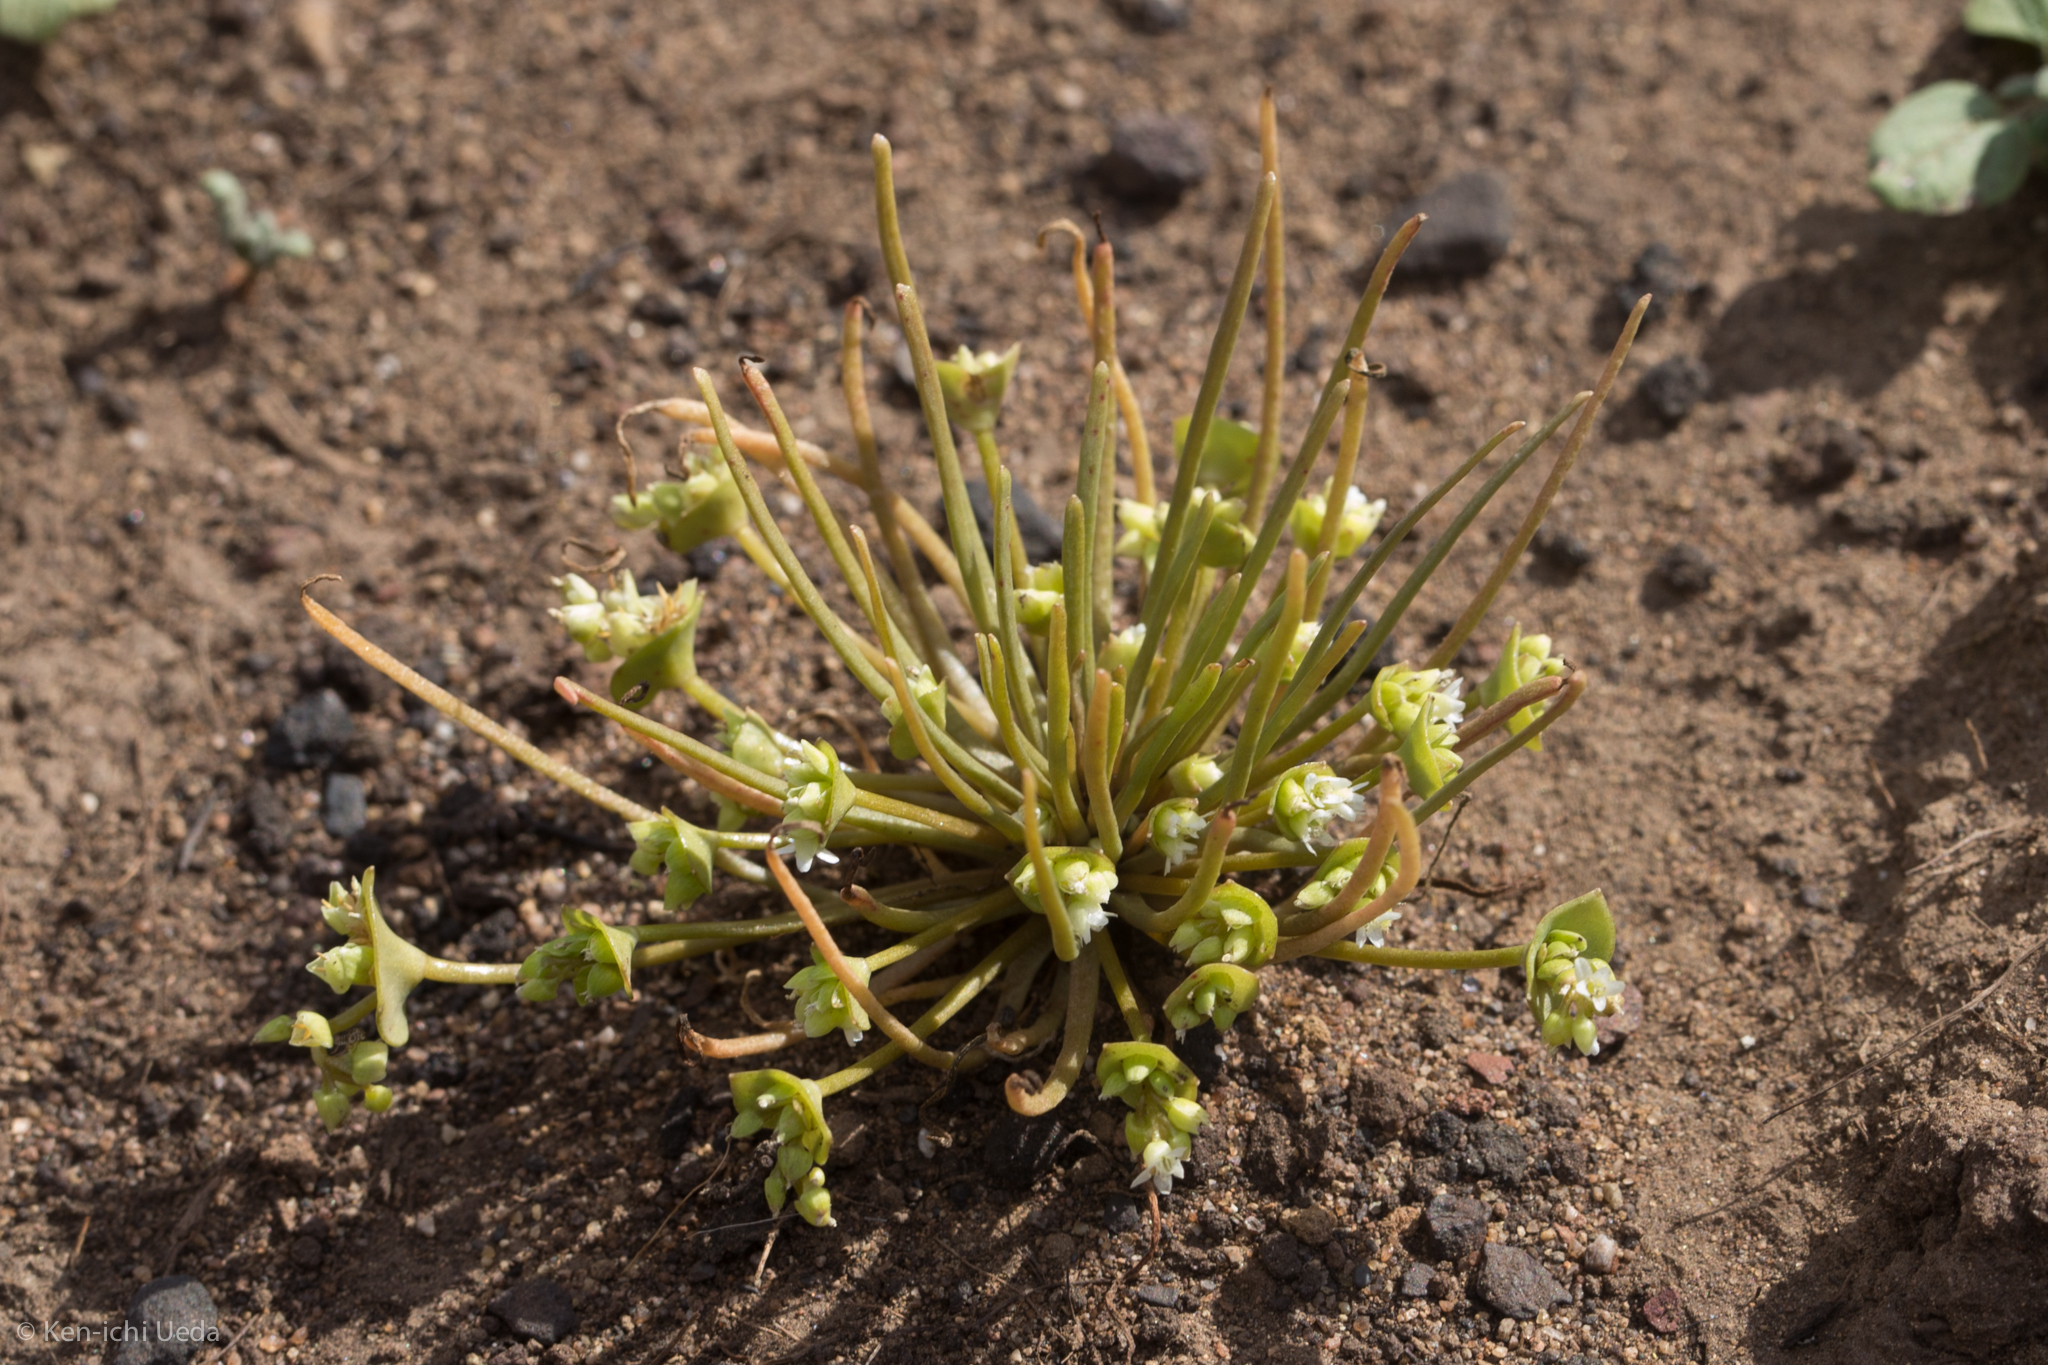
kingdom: Plantae
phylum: Tracheophyta
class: Magnoliopsida
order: Caryophyllales
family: Montiaceae
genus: Claytonia
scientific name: Claytonia parviflora
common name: Indian-lettuce
